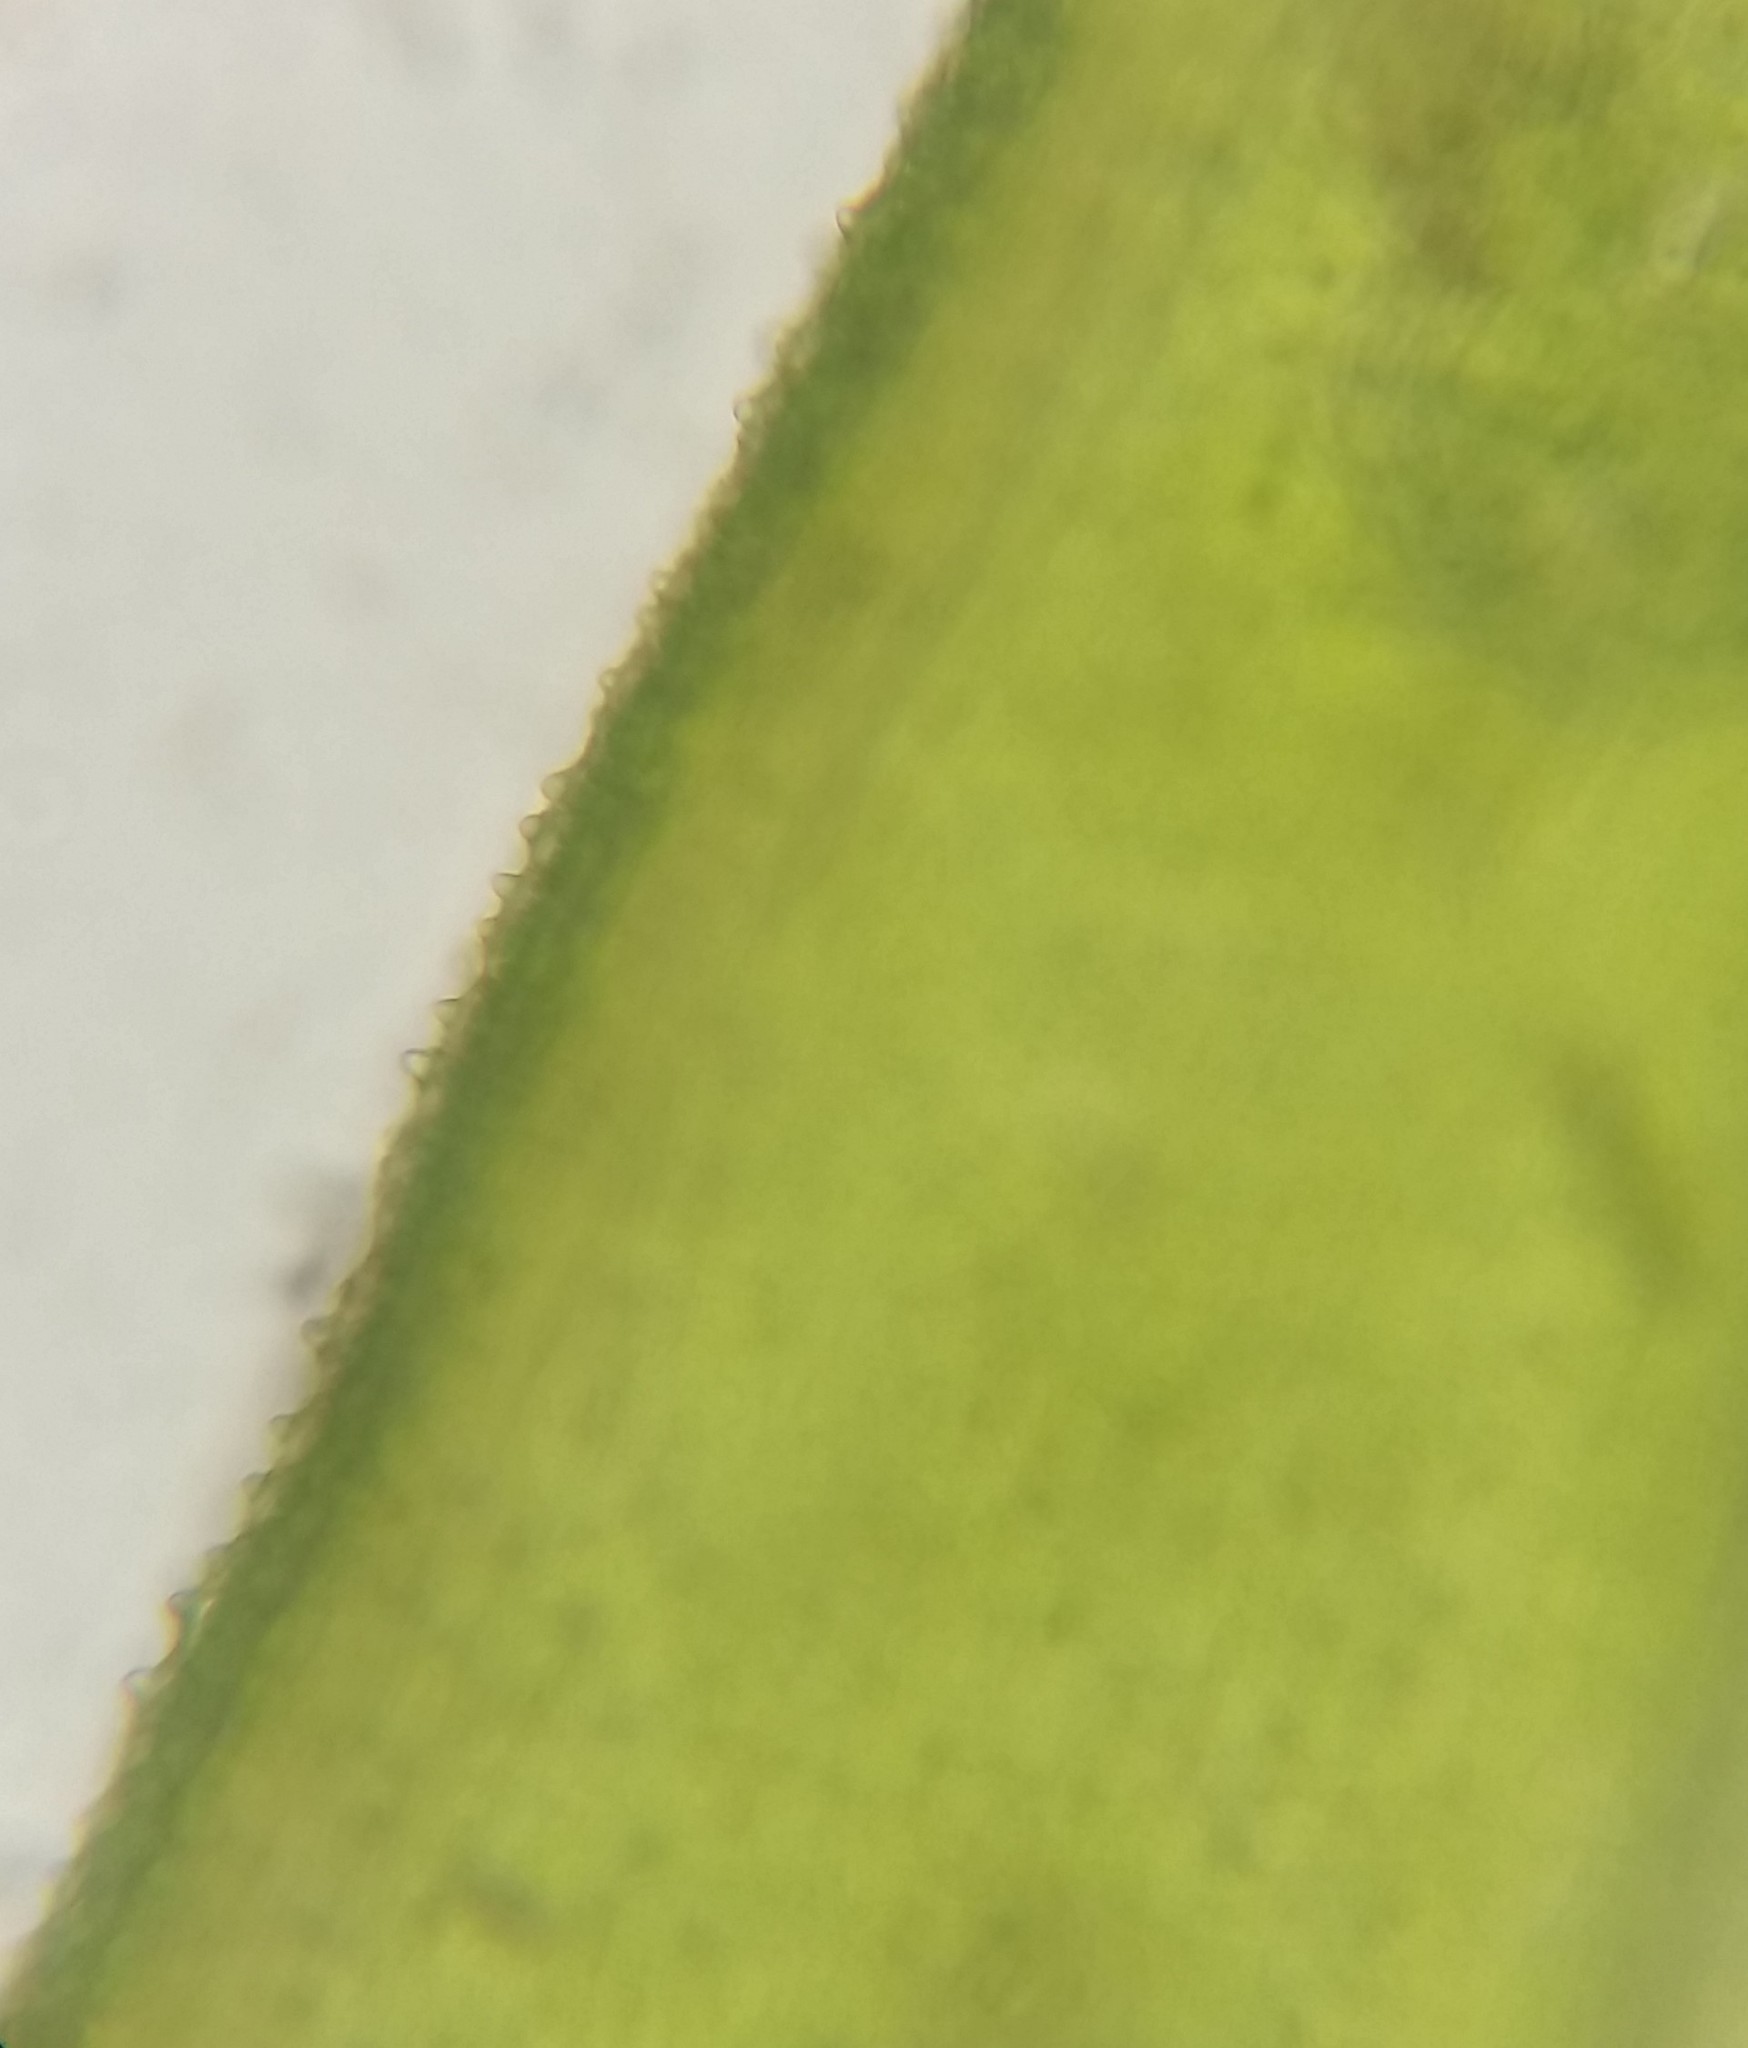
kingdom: Plantae
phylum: Bryophyta
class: Bryopsida
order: Aulacomniales
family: Aulacomniaceae
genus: Aulacomnium
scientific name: Aulacomnium palustre
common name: Bog groove-moss
